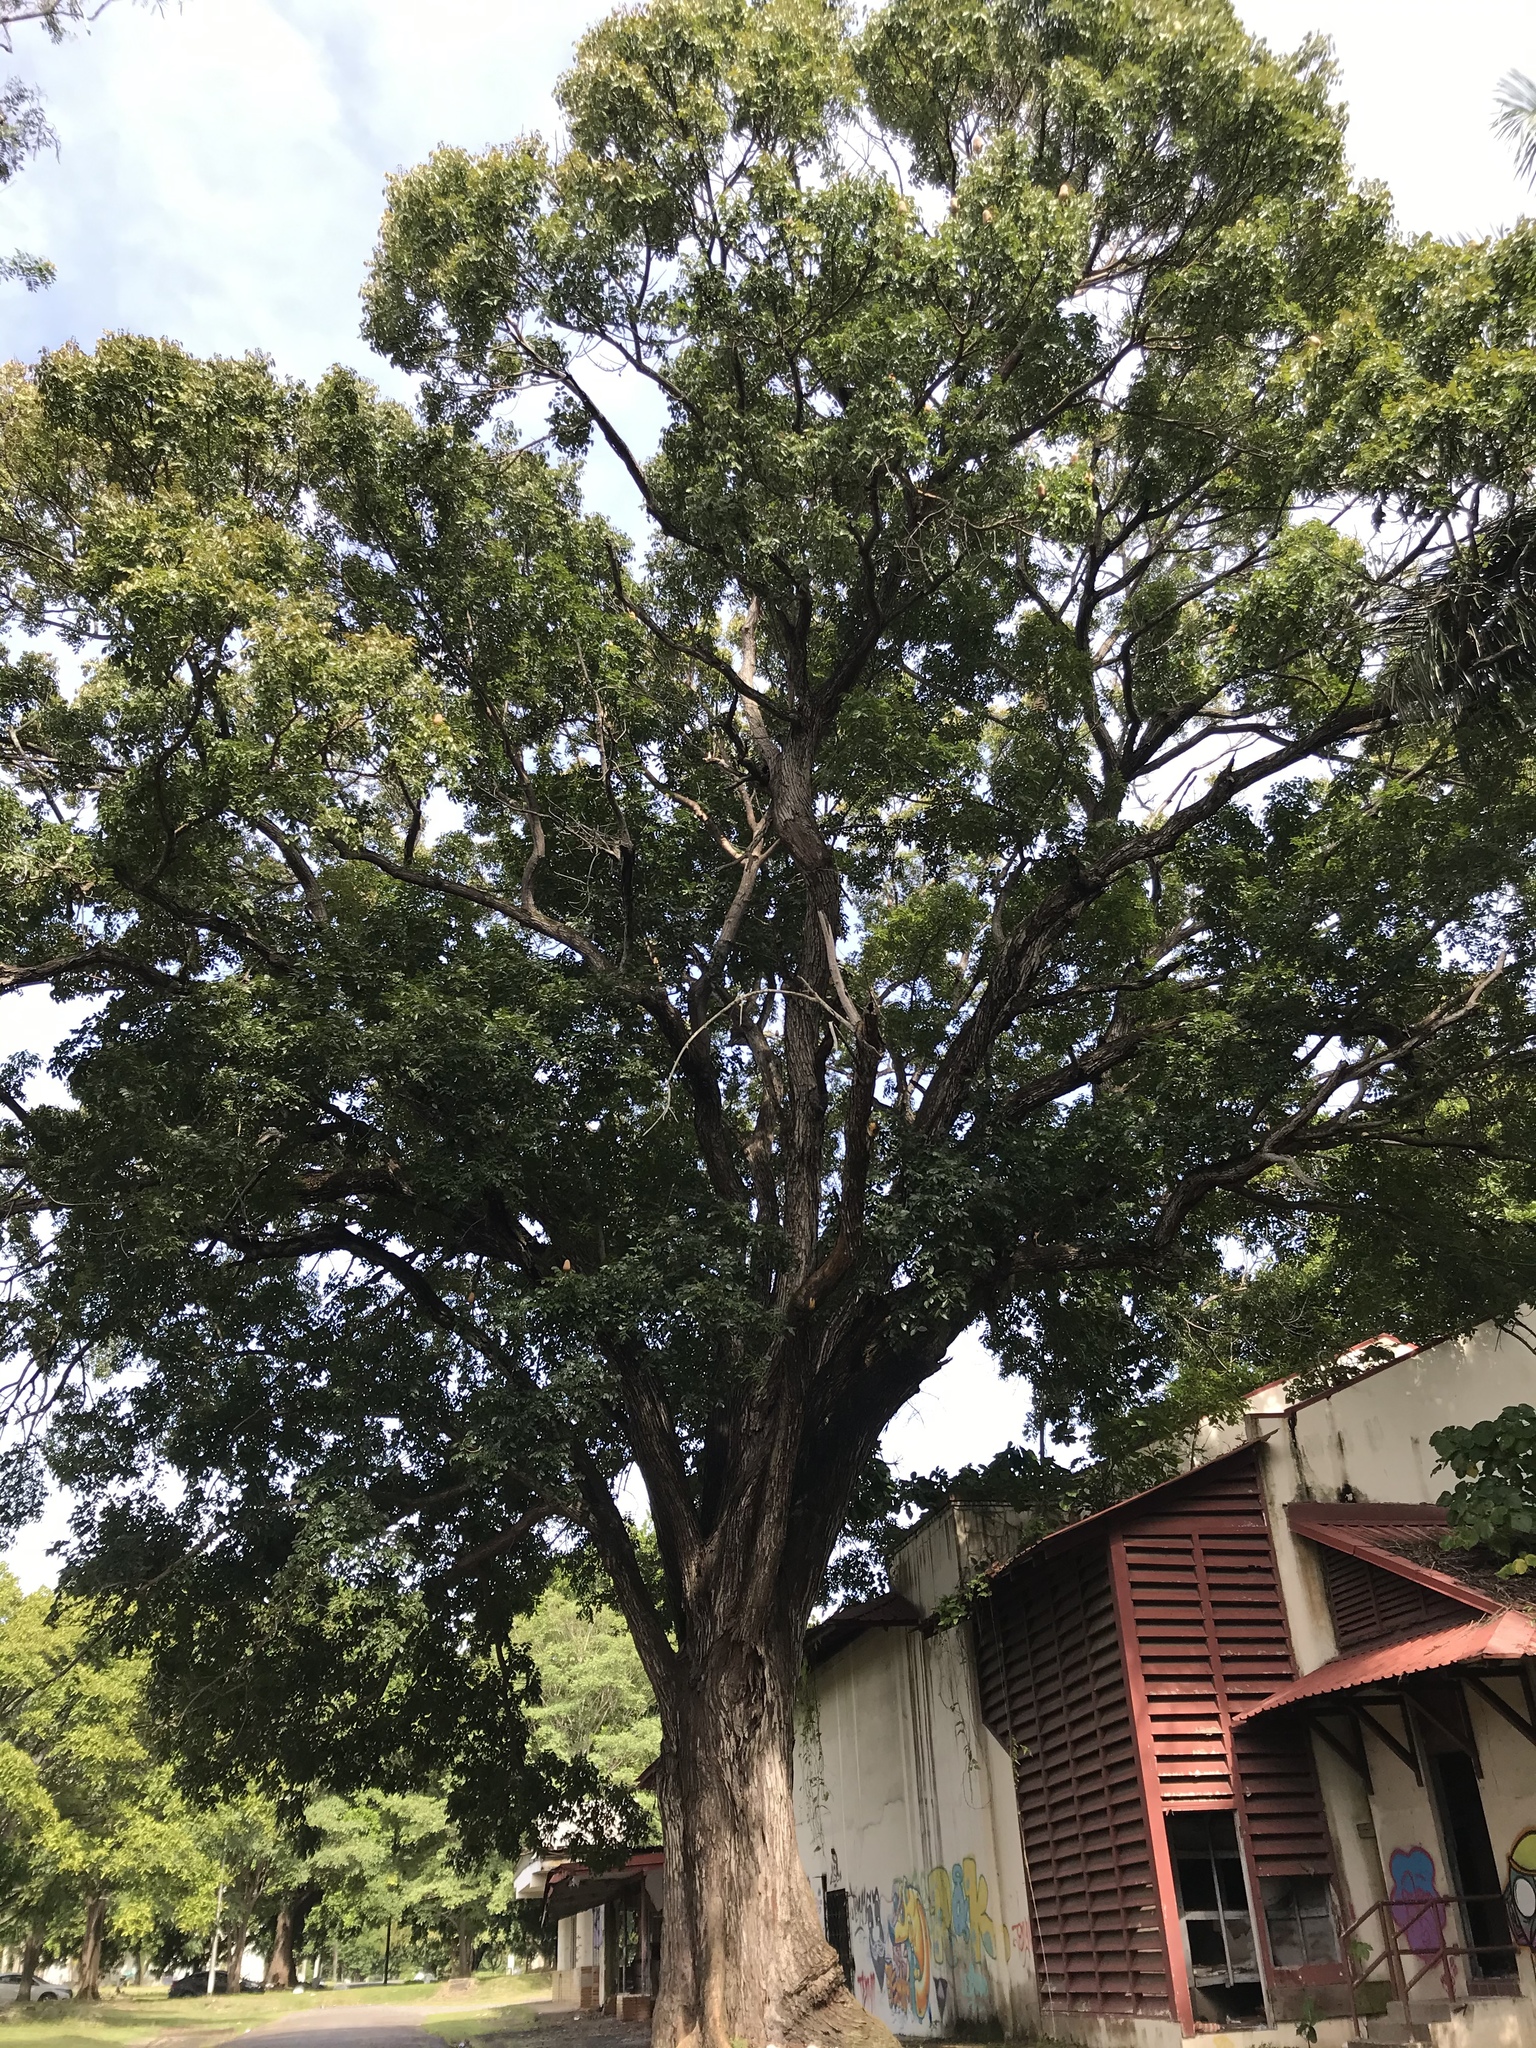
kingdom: Plantae
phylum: Tracheophyta
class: Magnoliopsida
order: Sapindales
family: Meliaceae
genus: Swietenia
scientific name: Swietenia macrophylla
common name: Honduras mahogany
